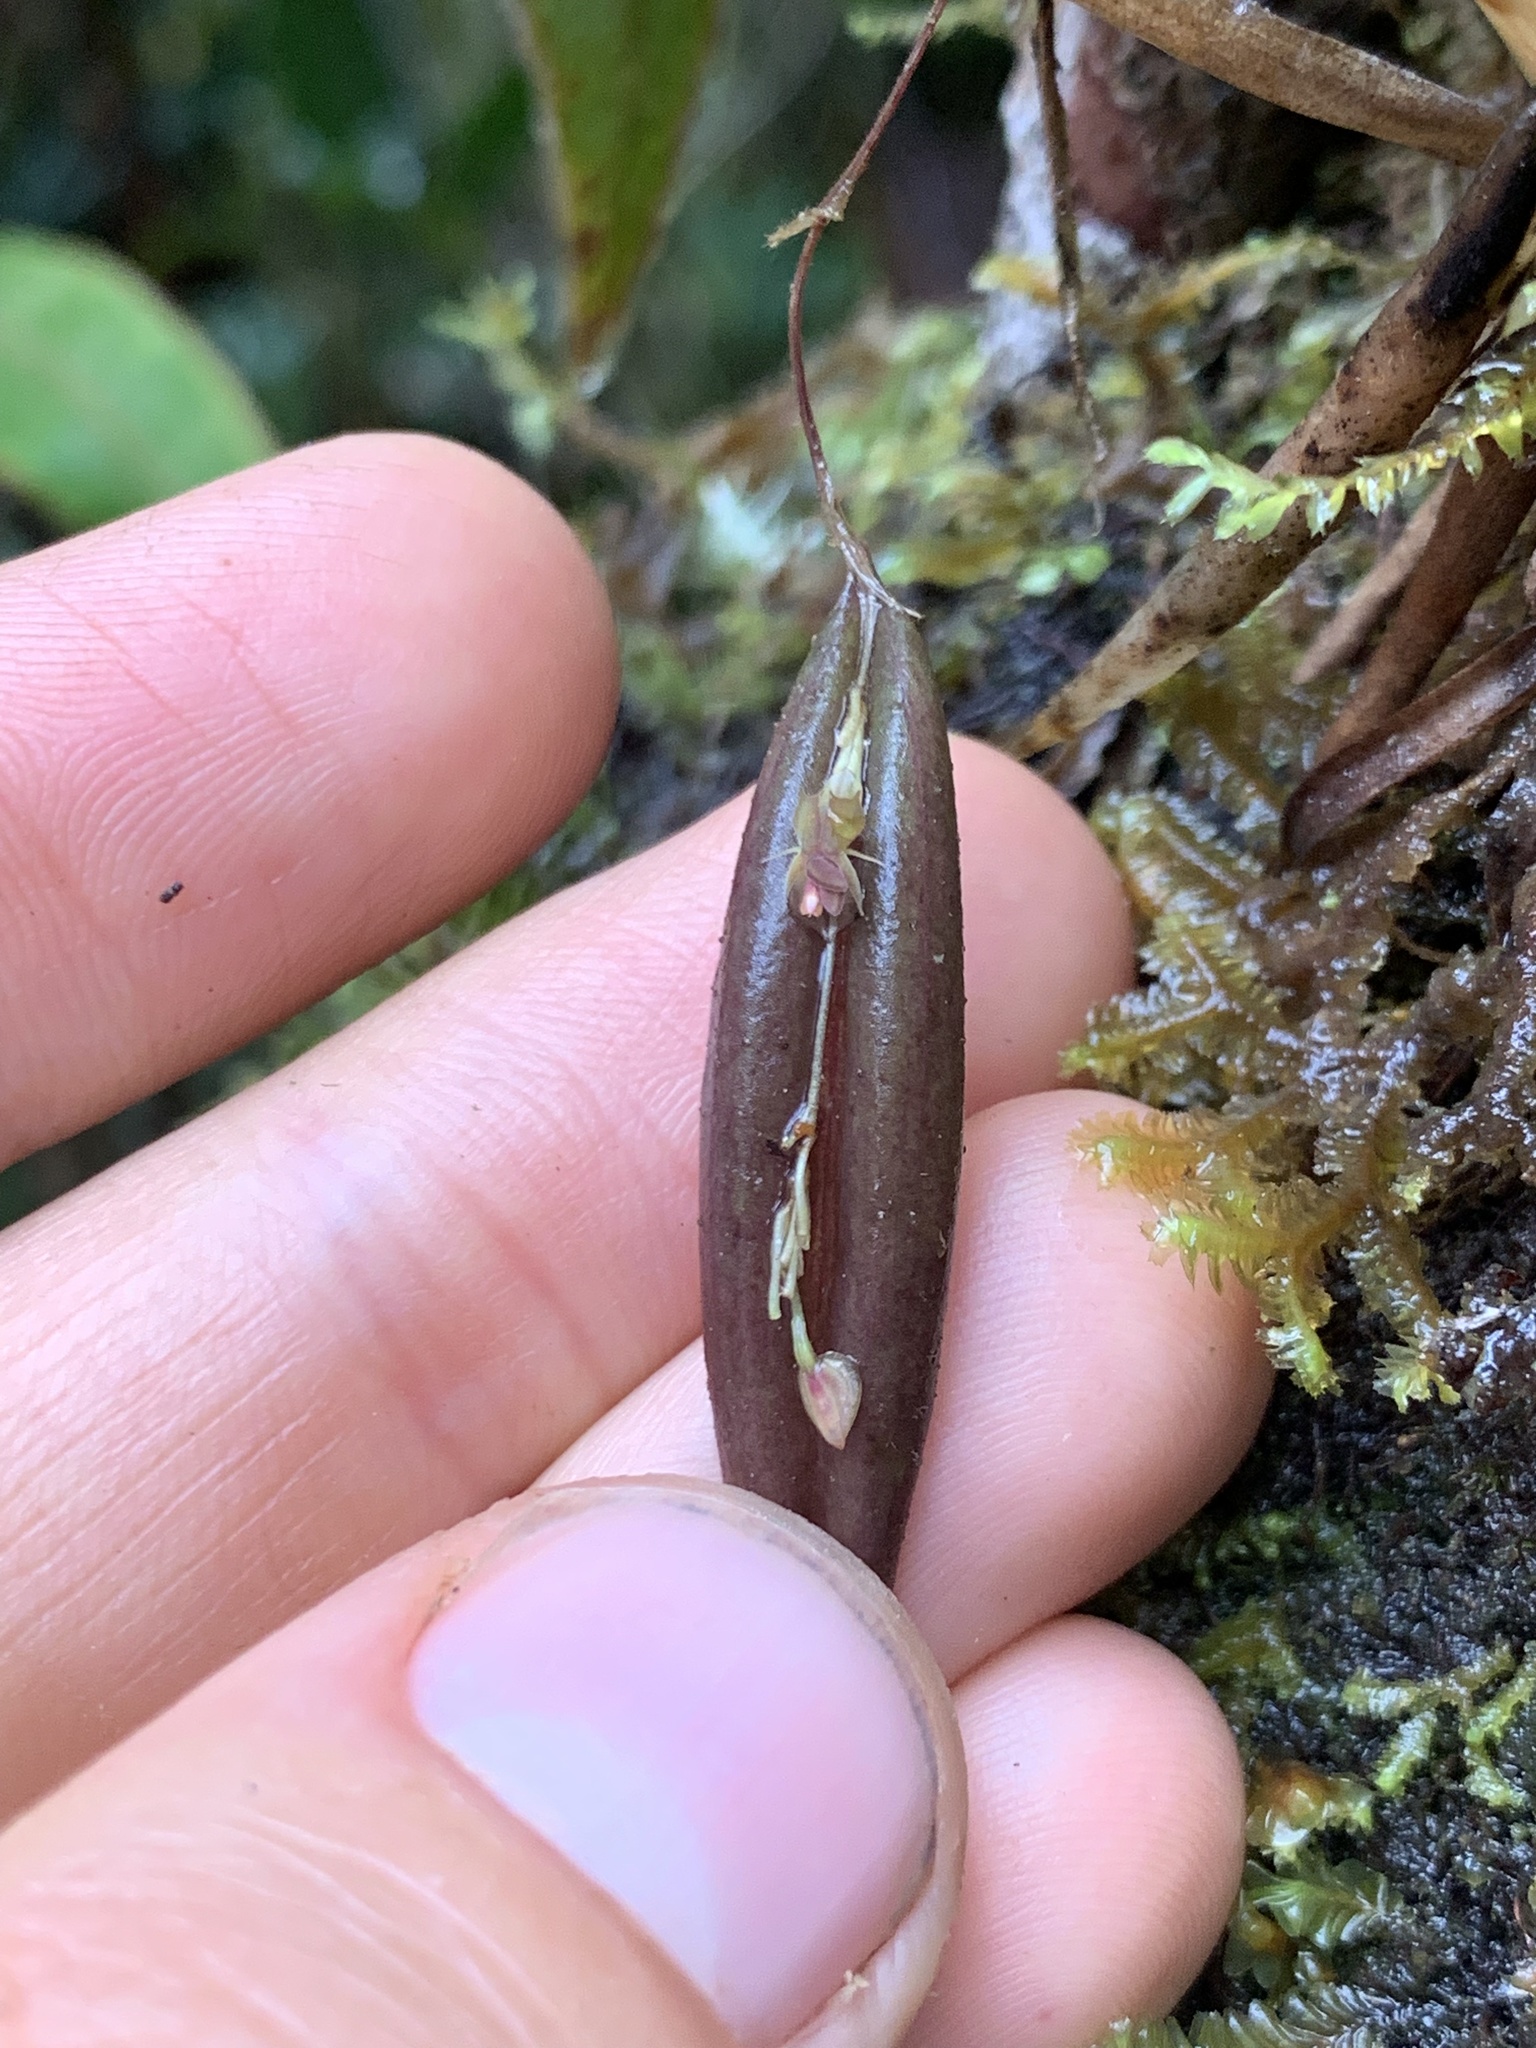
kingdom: Plantae
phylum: Tracheophyta
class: Liliopsida
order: Asparagales
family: Orchidaceae
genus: Lepanthes
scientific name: Lepanthes mucronata
